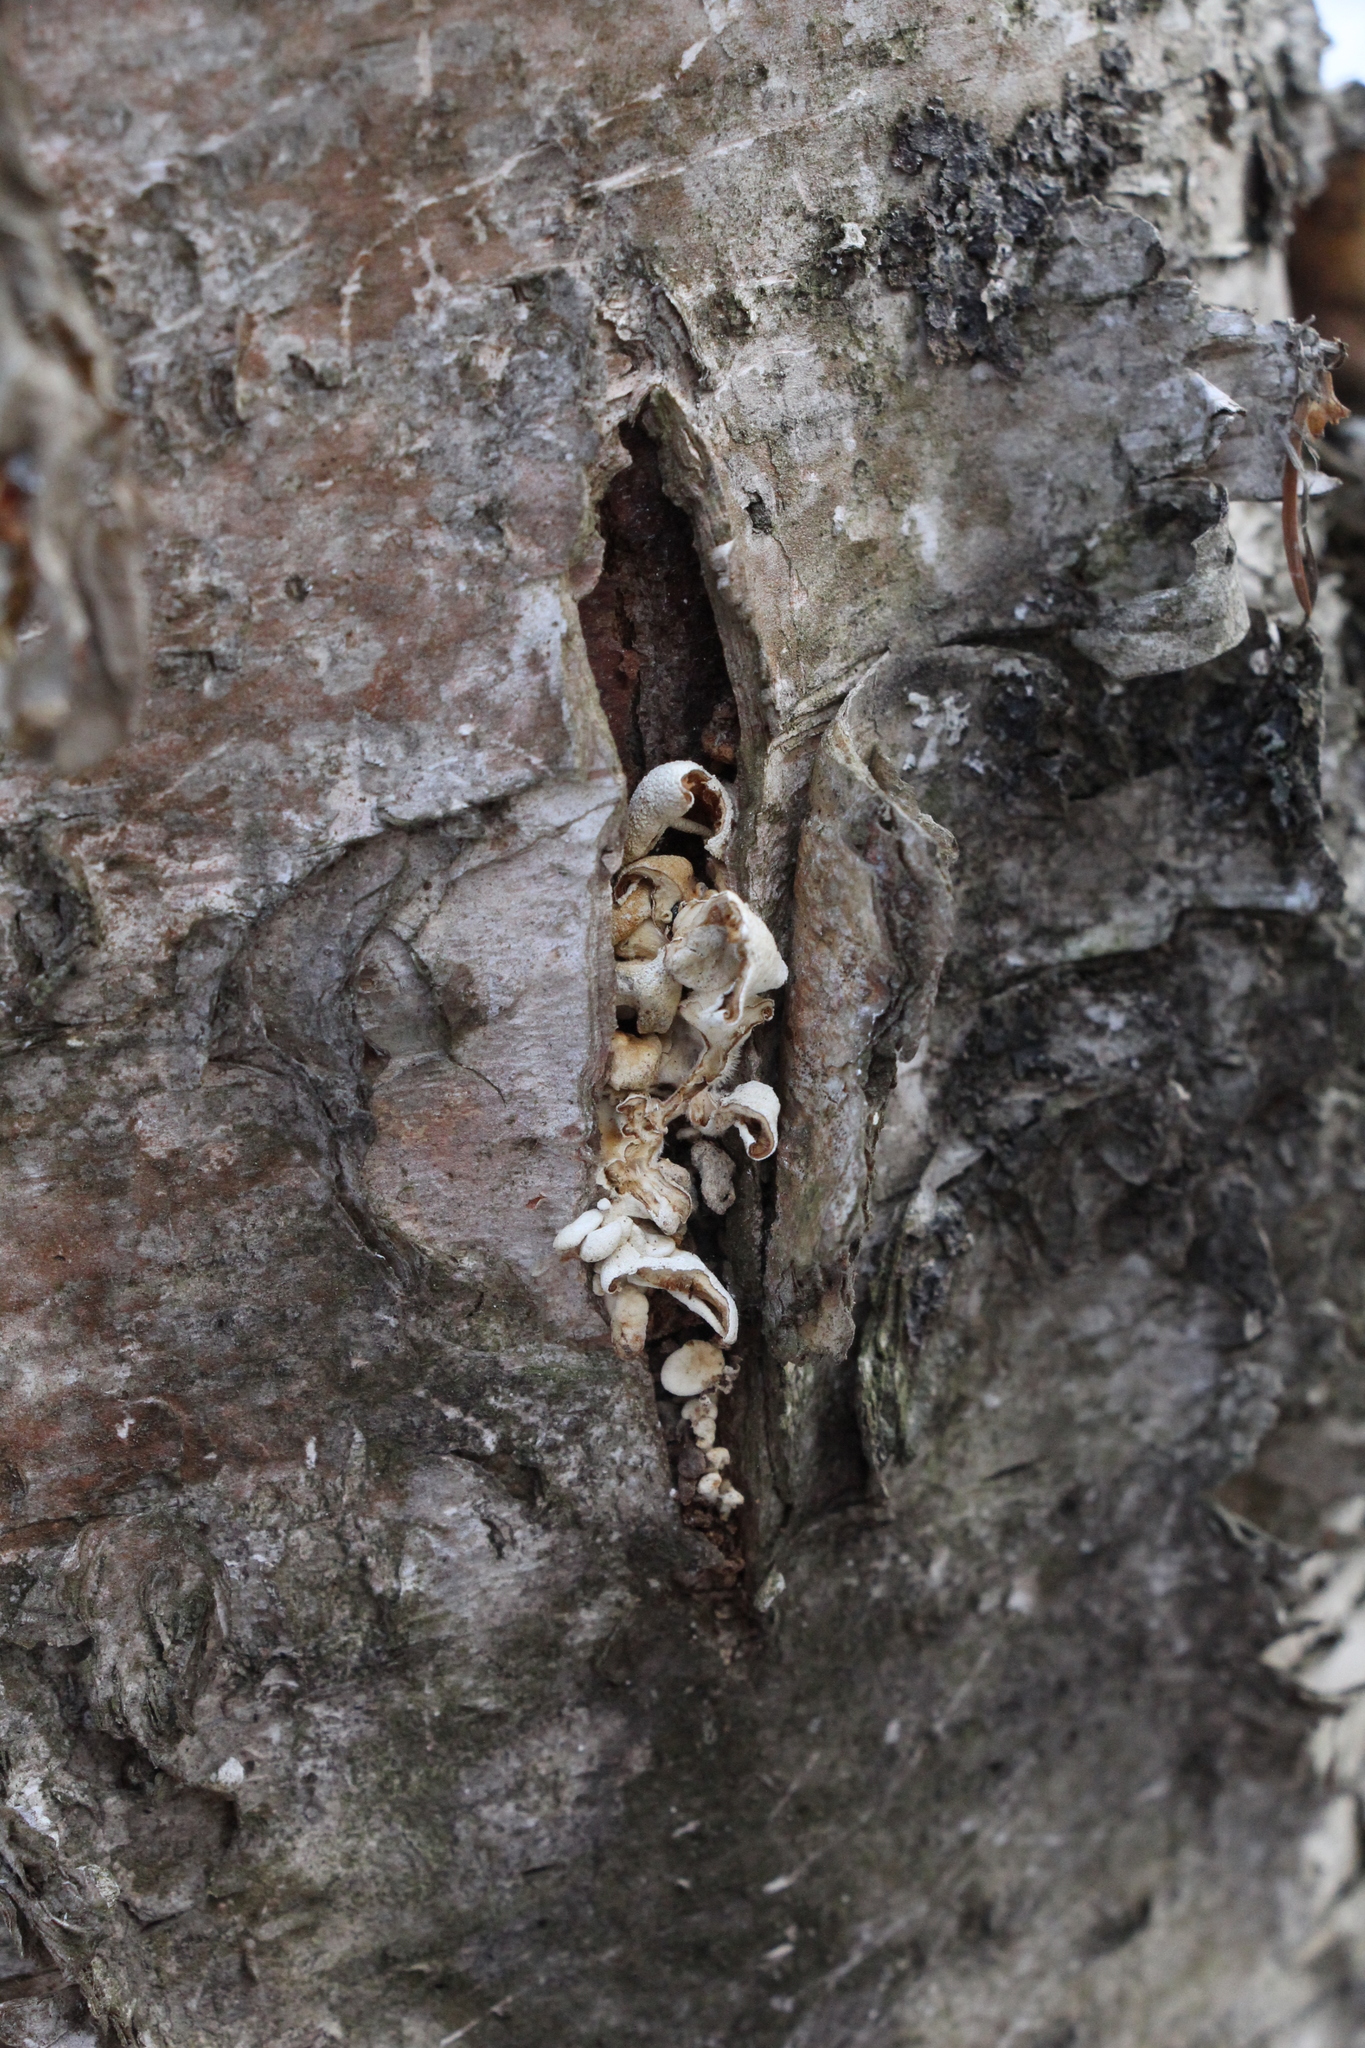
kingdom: Fungi
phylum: Basidiomycota
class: Agaricomycetes
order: Agaricales
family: Mycenaceae
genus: Panellus
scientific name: Panellus stipticus
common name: Bitter oysterling
